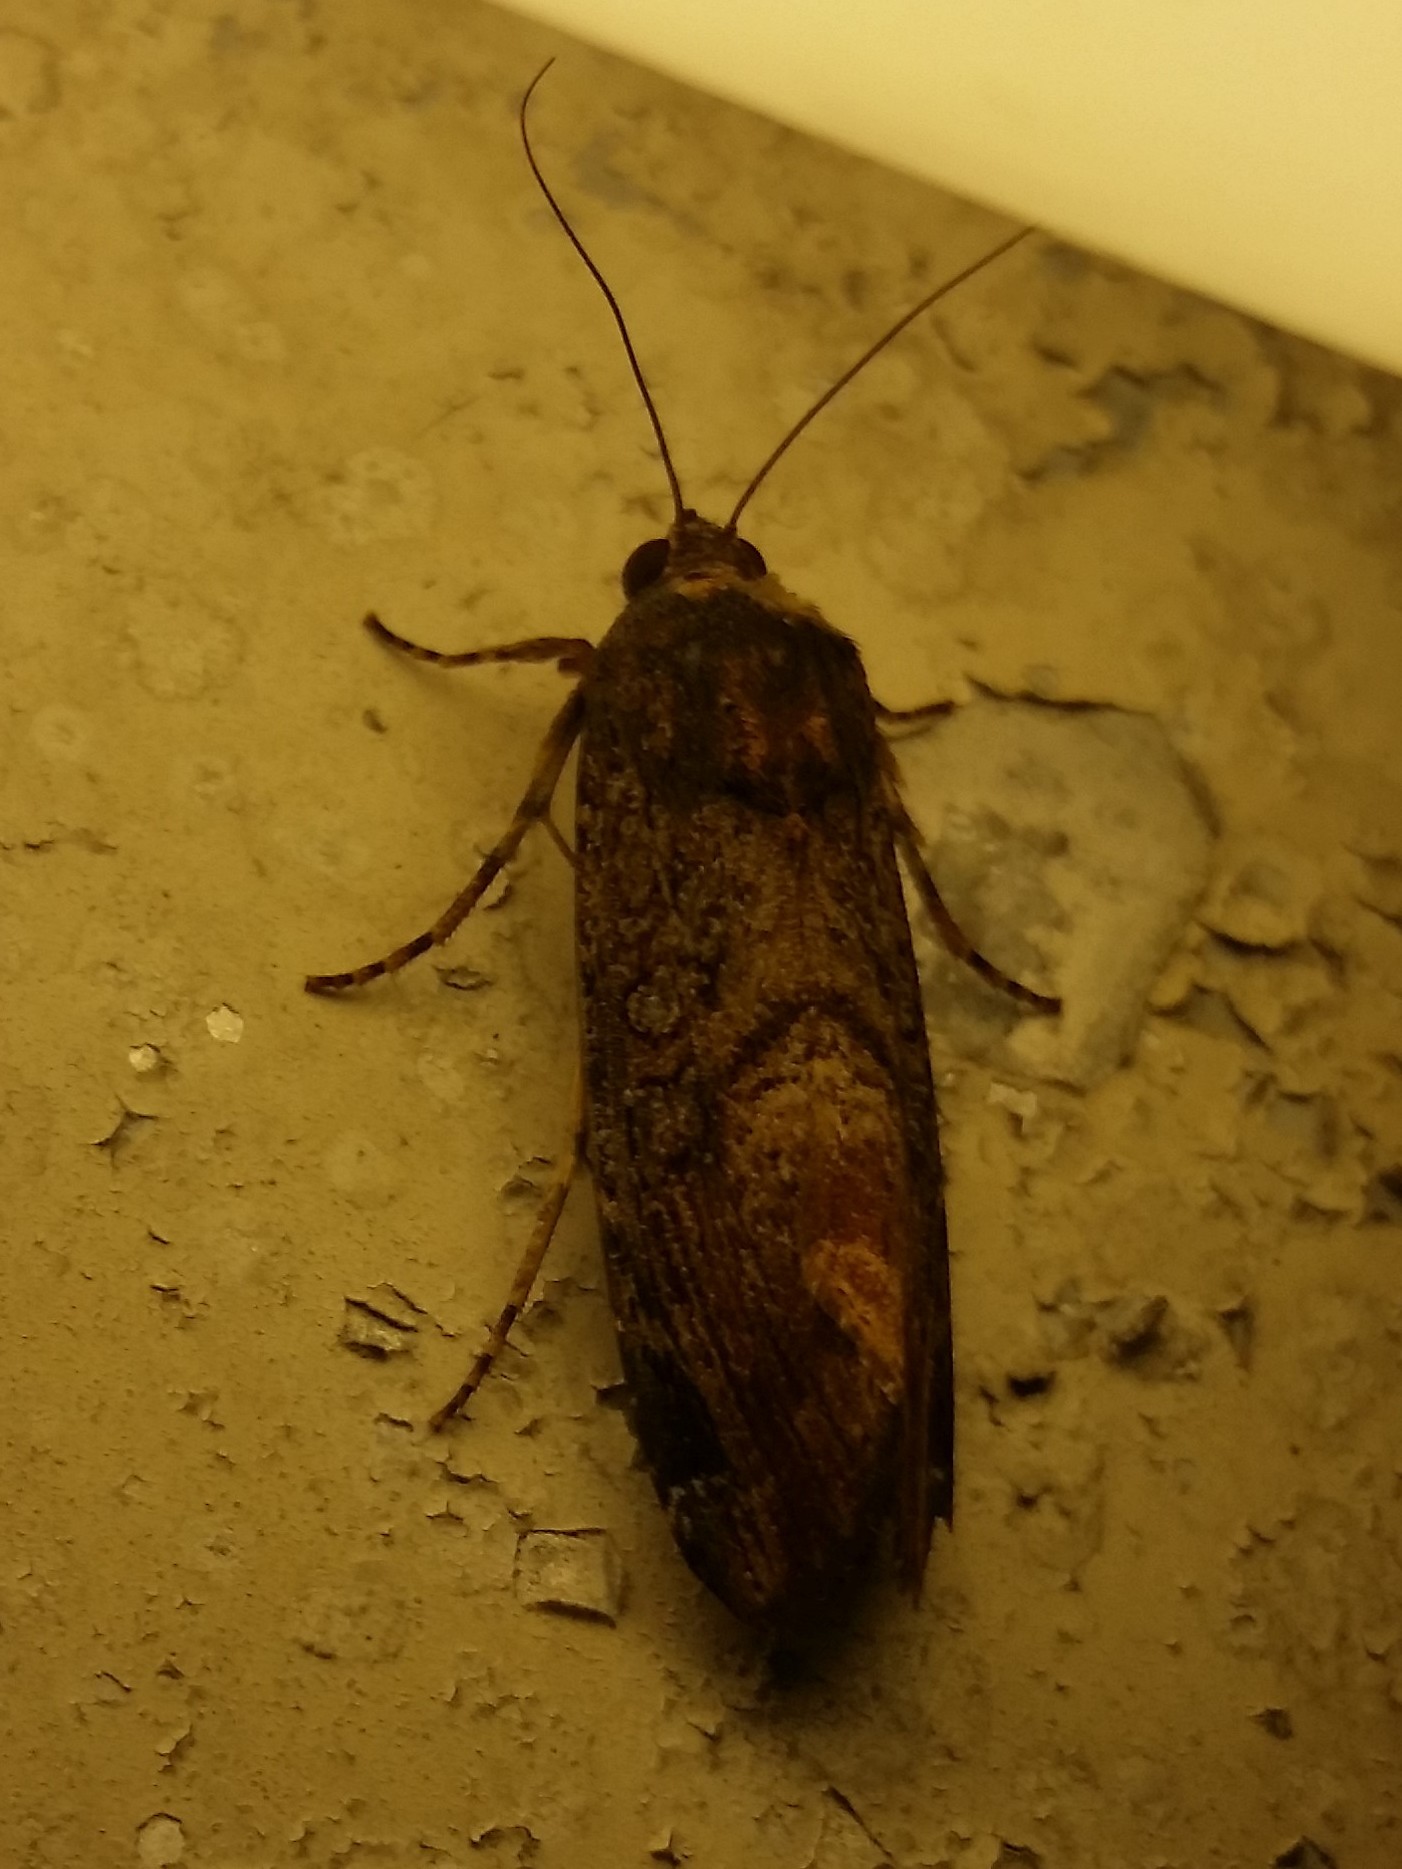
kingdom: Animalia
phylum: Arthropoda
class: Insecta
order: Lepidoptera
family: Noctuidae
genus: Magusa
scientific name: Magusa divaricata
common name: Orb narrow-winged moth
